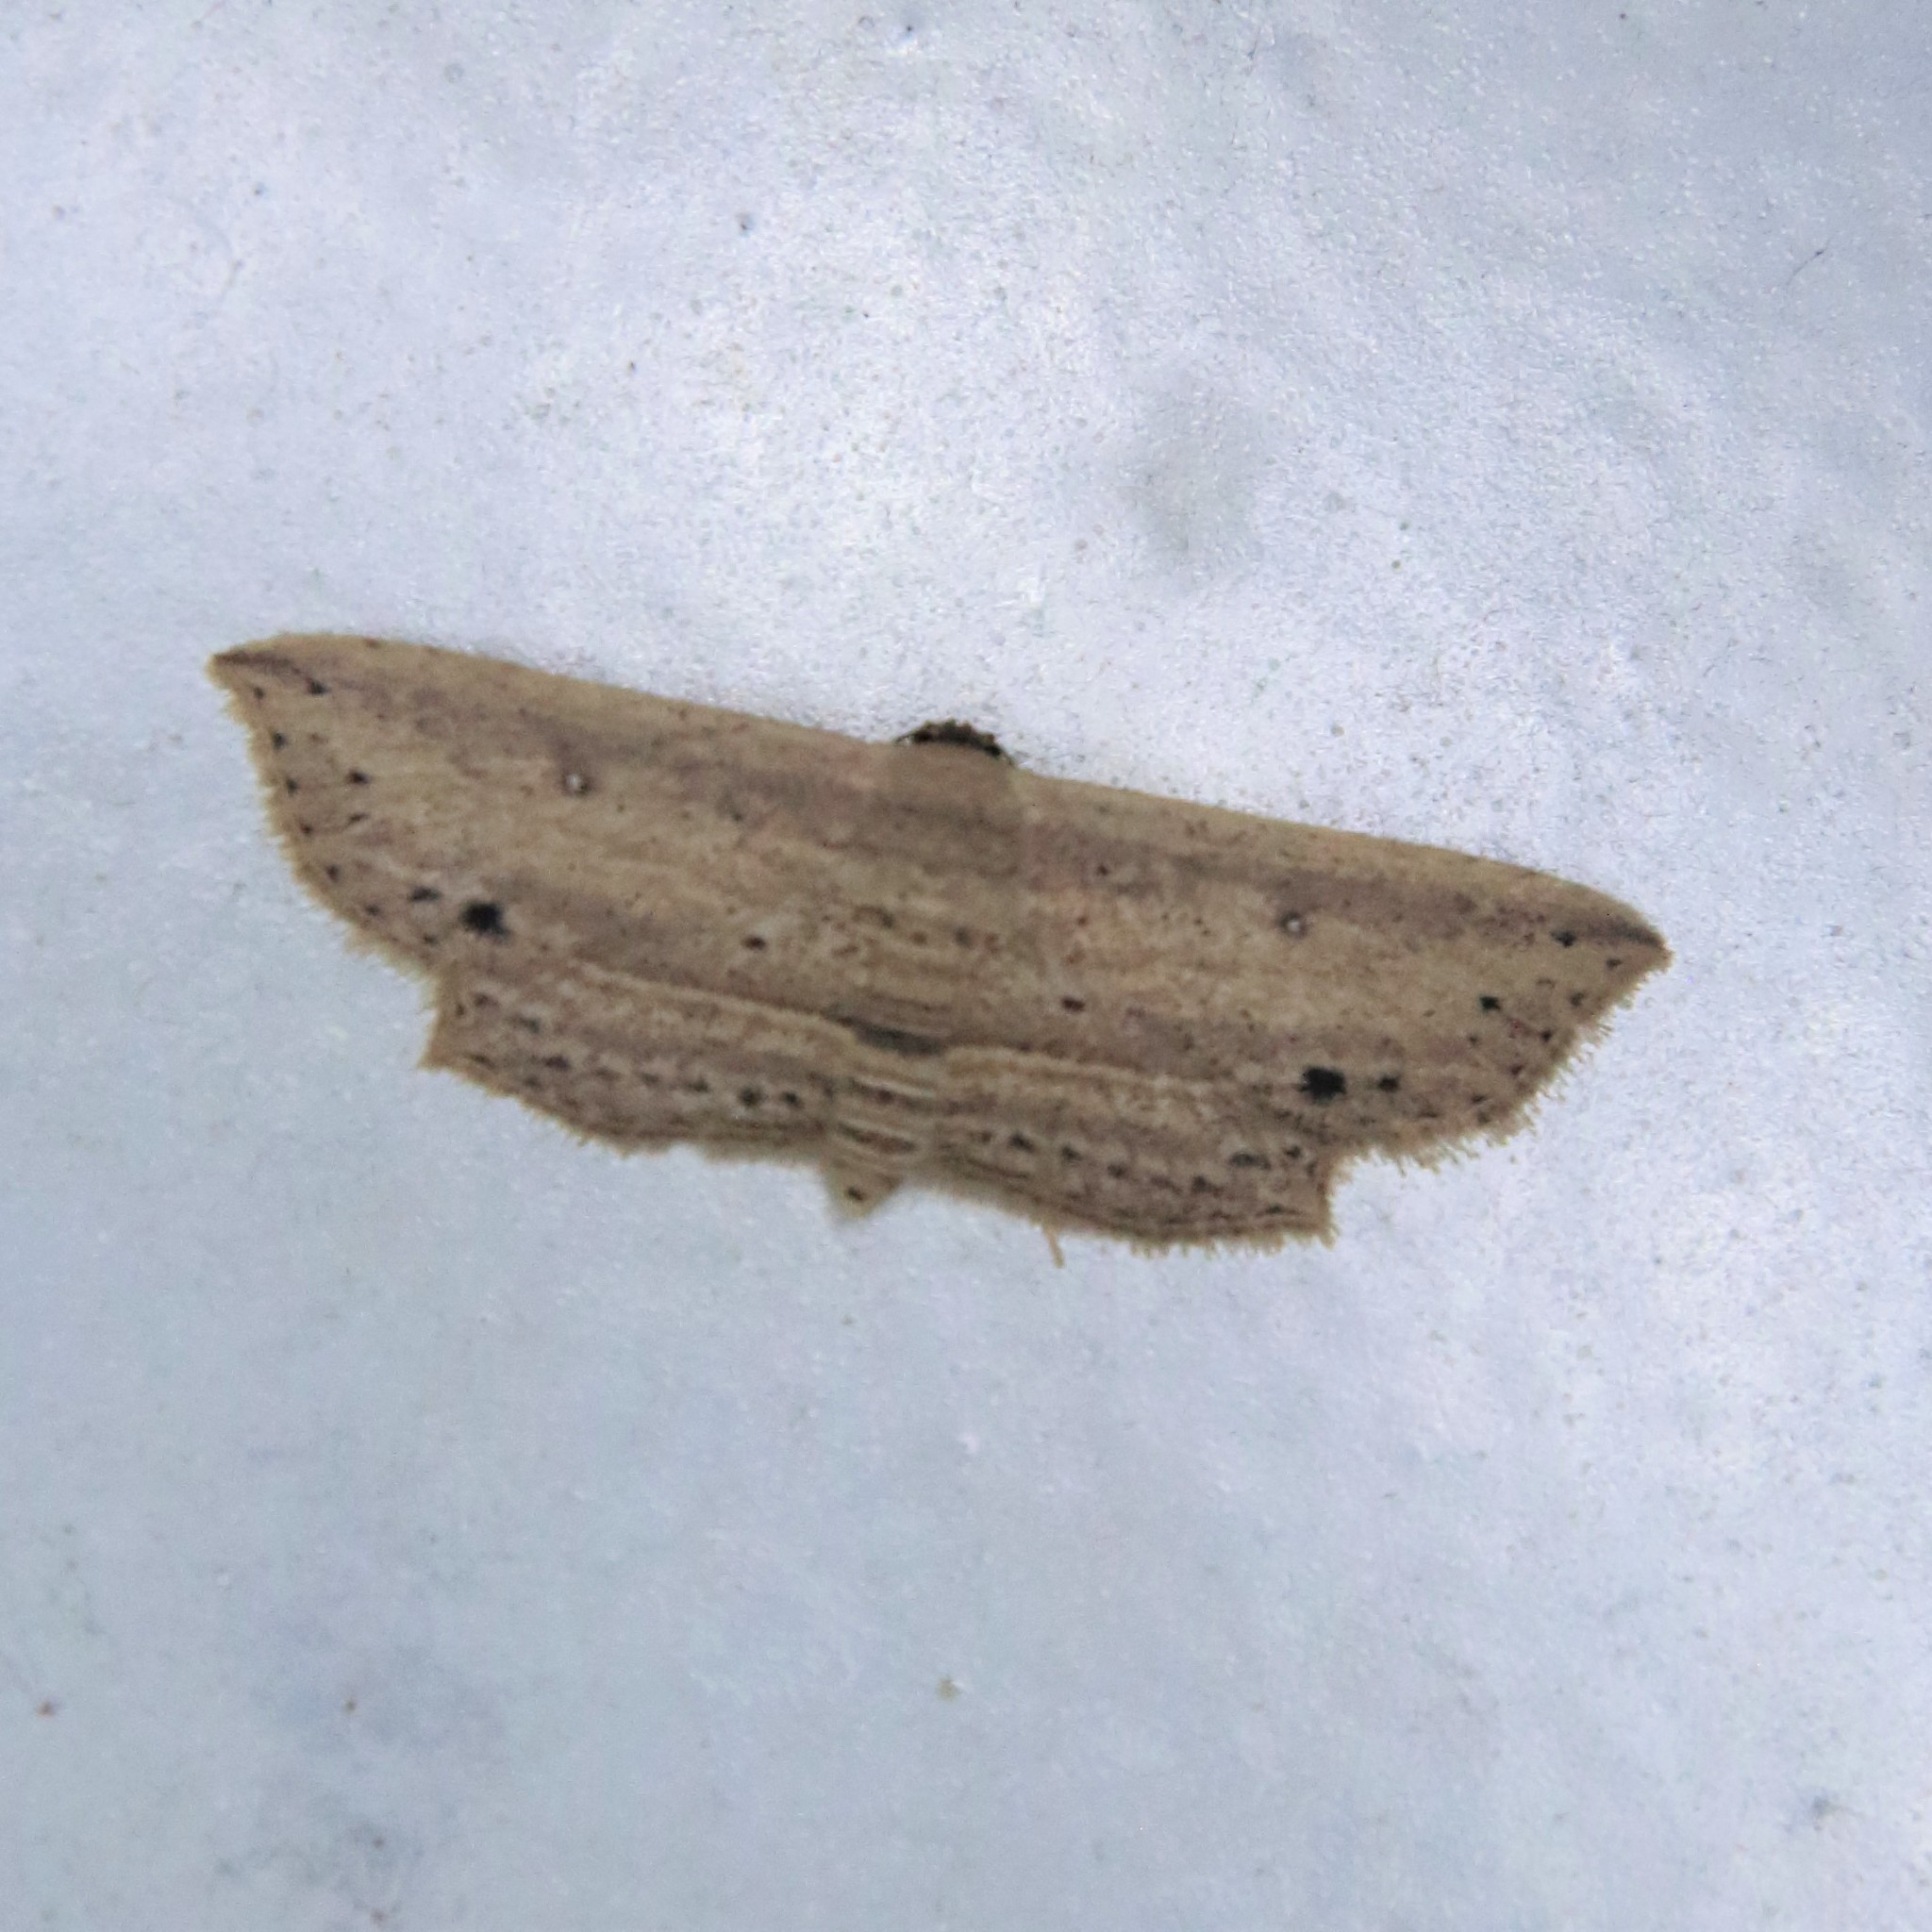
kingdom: Animalia
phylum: Arthropoda
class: Insecta
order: Lepidoptera
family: Noctuidae
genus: Hyposada
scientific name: Hyposada hydrocampata
